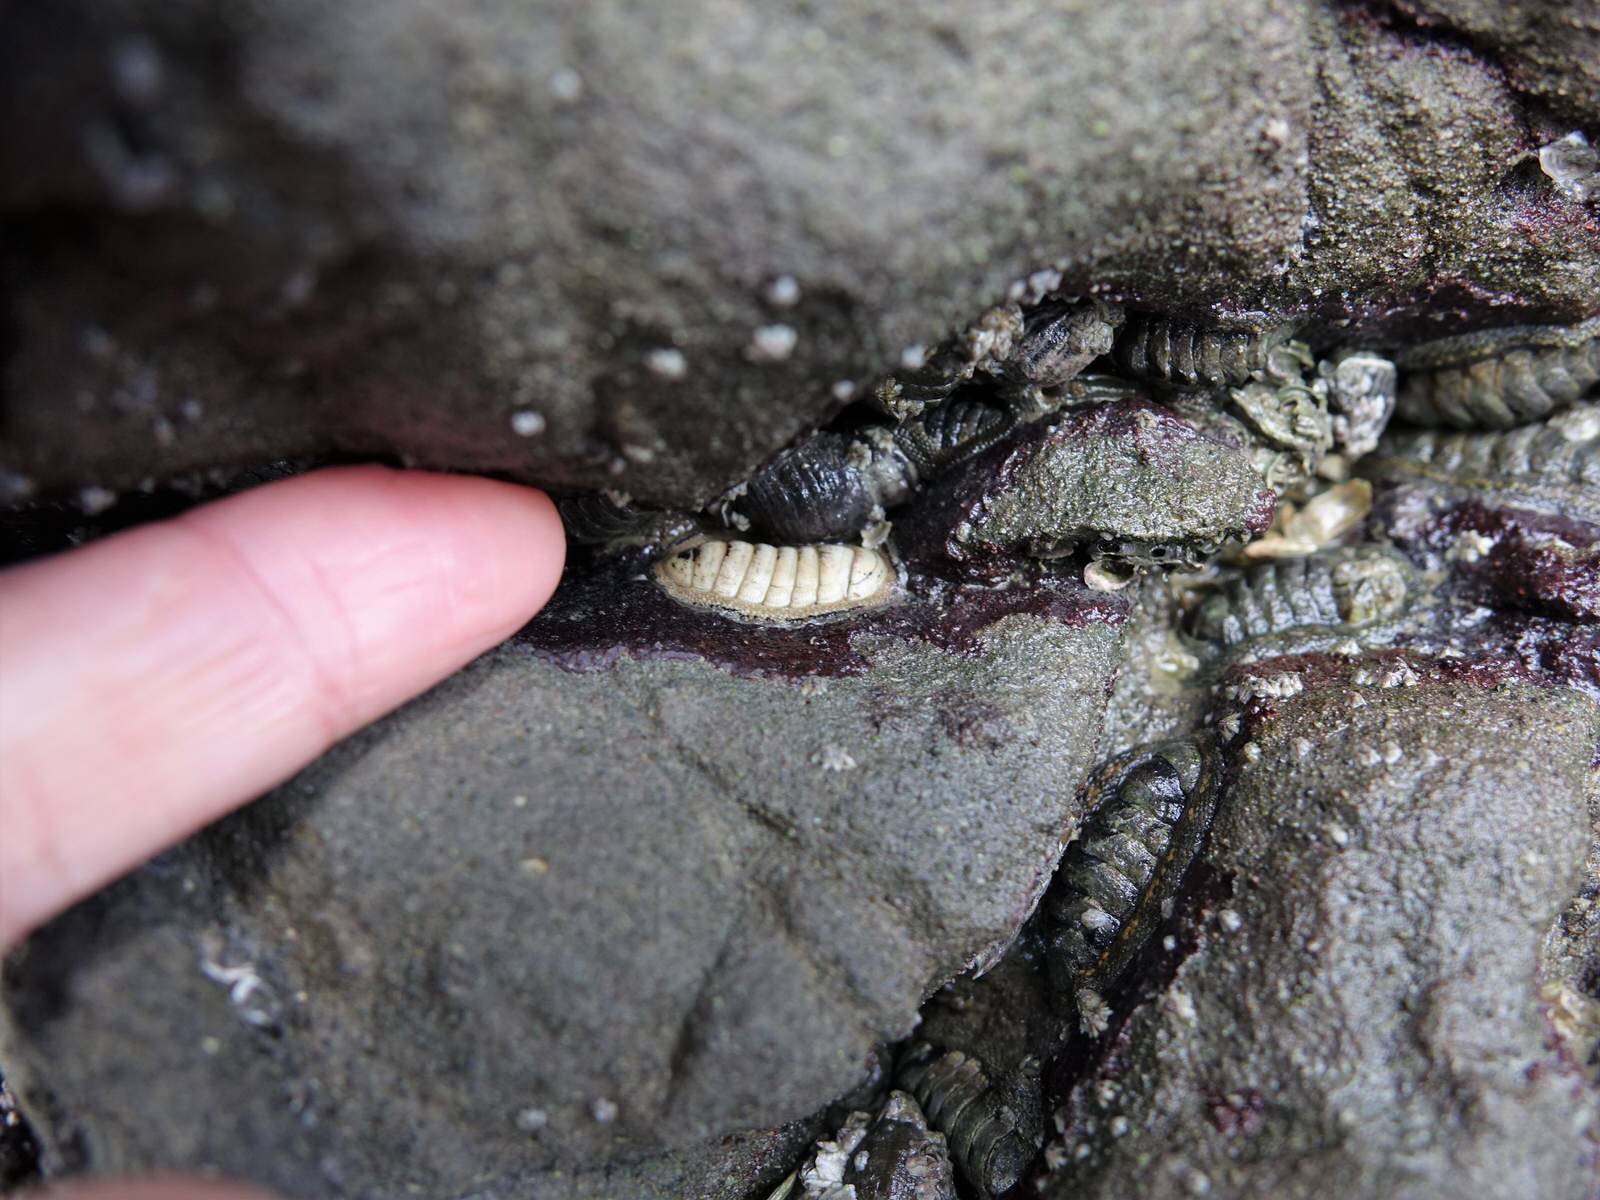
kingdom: Animalia
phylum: Mollusca
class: Polyplacophora
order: Chitonida
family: Chitonidae
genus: Chiton
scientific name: Chiton glaucus
